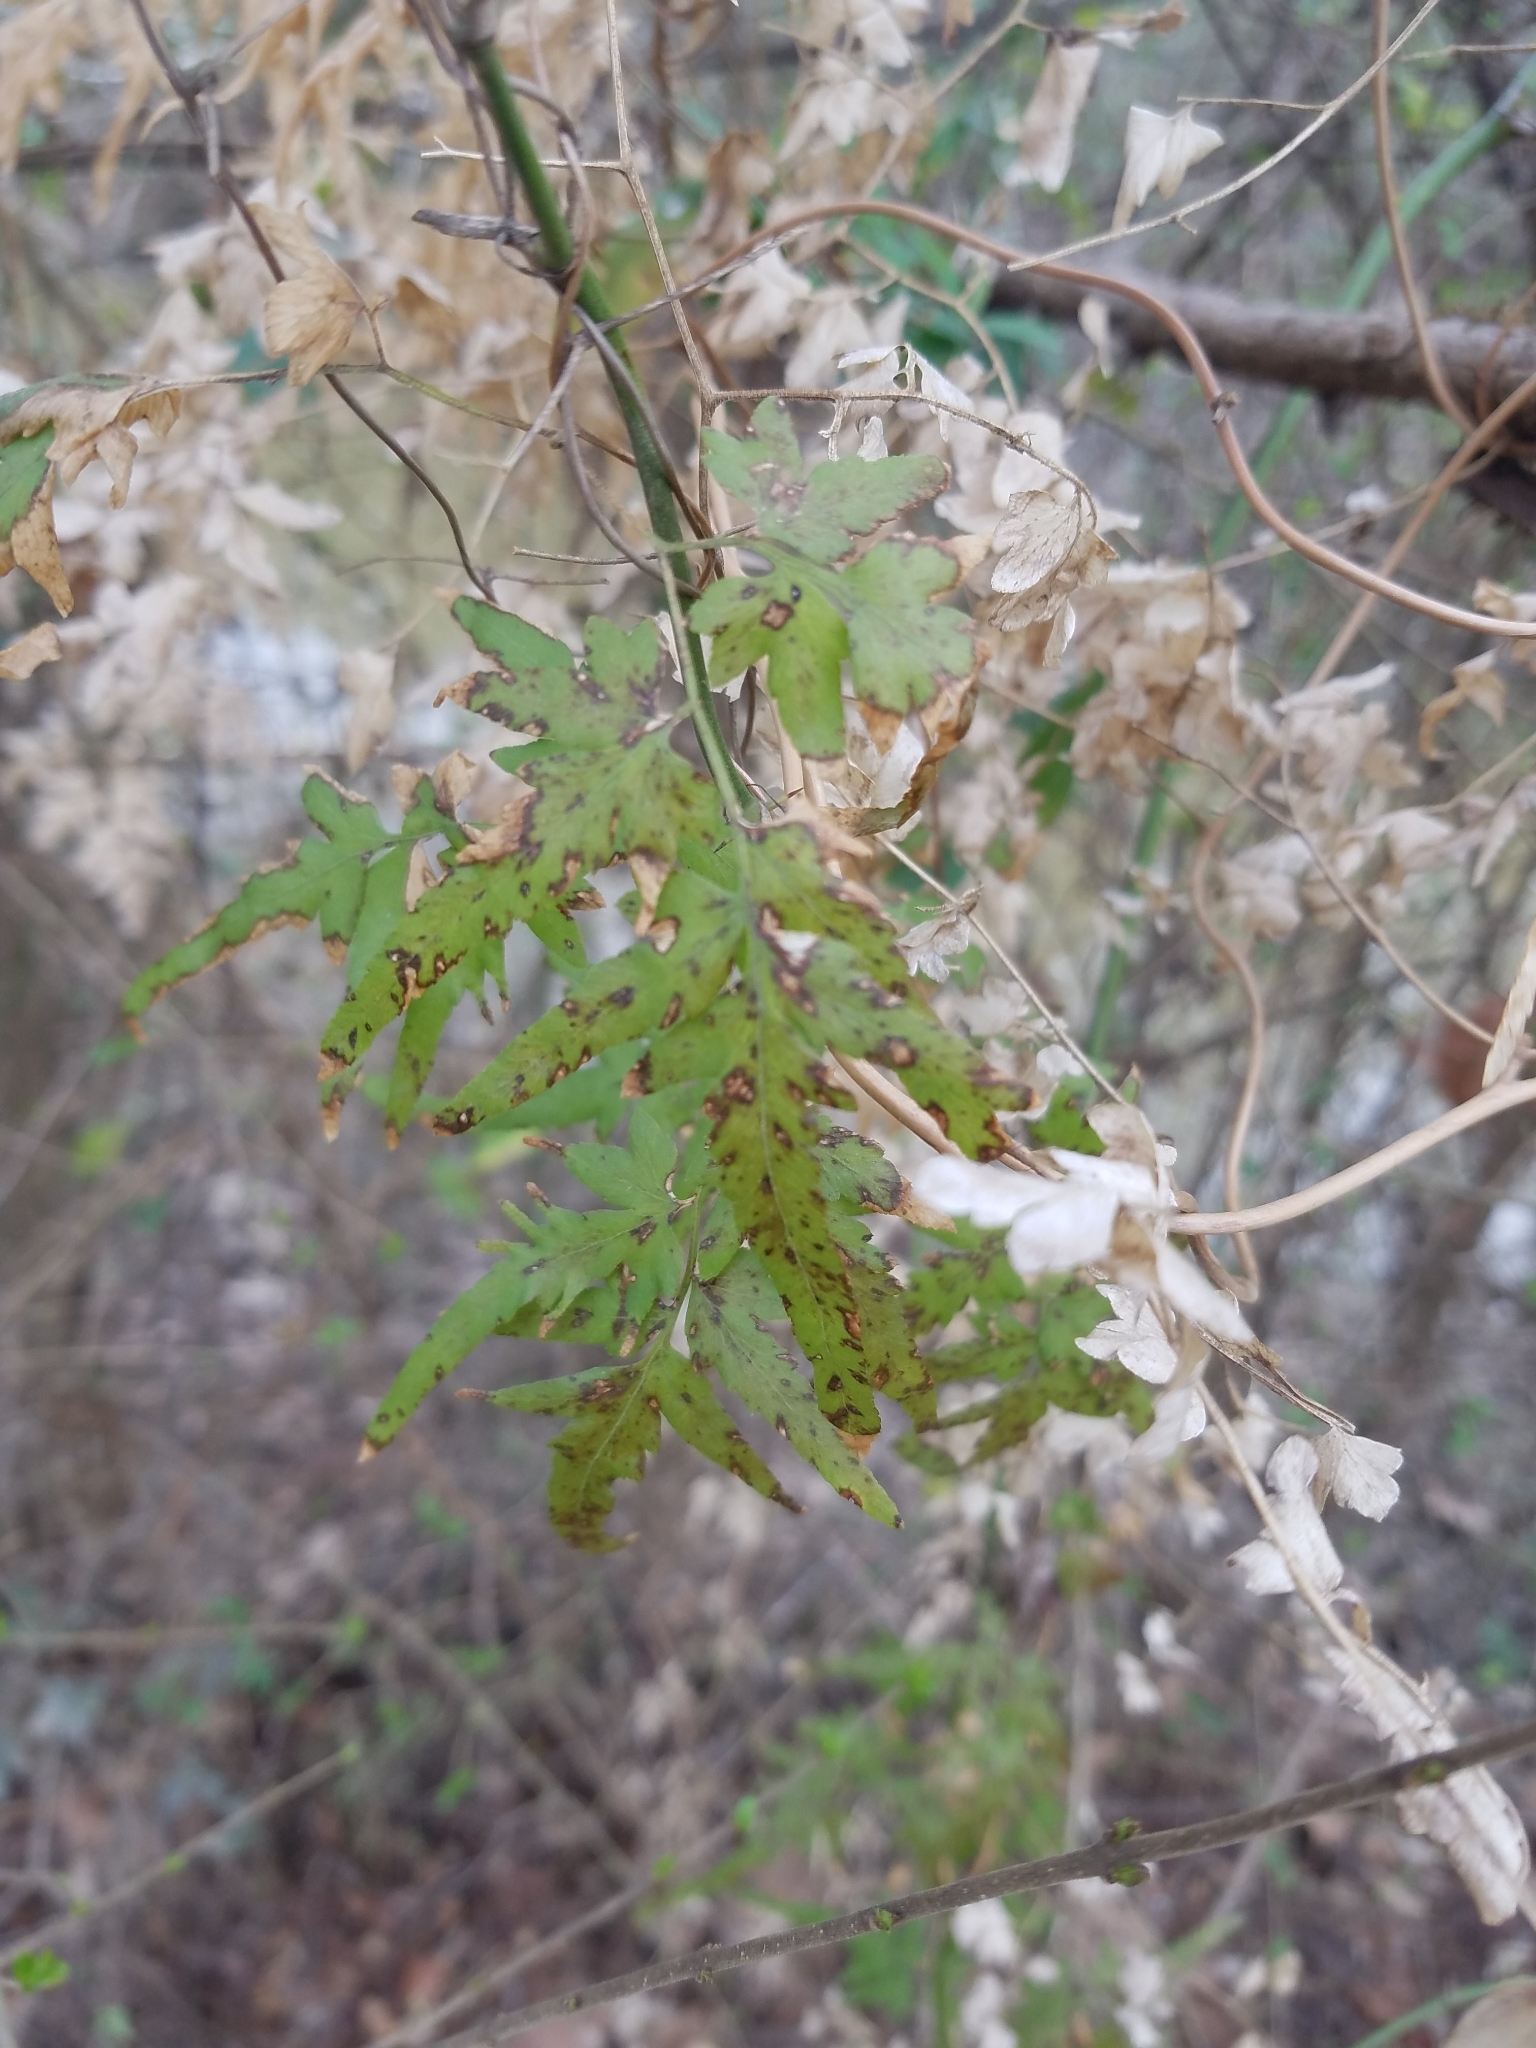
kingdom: Plantae
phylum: Tracheophyta
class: Polypodiopsida
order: Schizaeales
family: Lygodiaceae
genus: Lygodium
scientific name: Lygodium japonicum
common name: Japanese climbing fern
